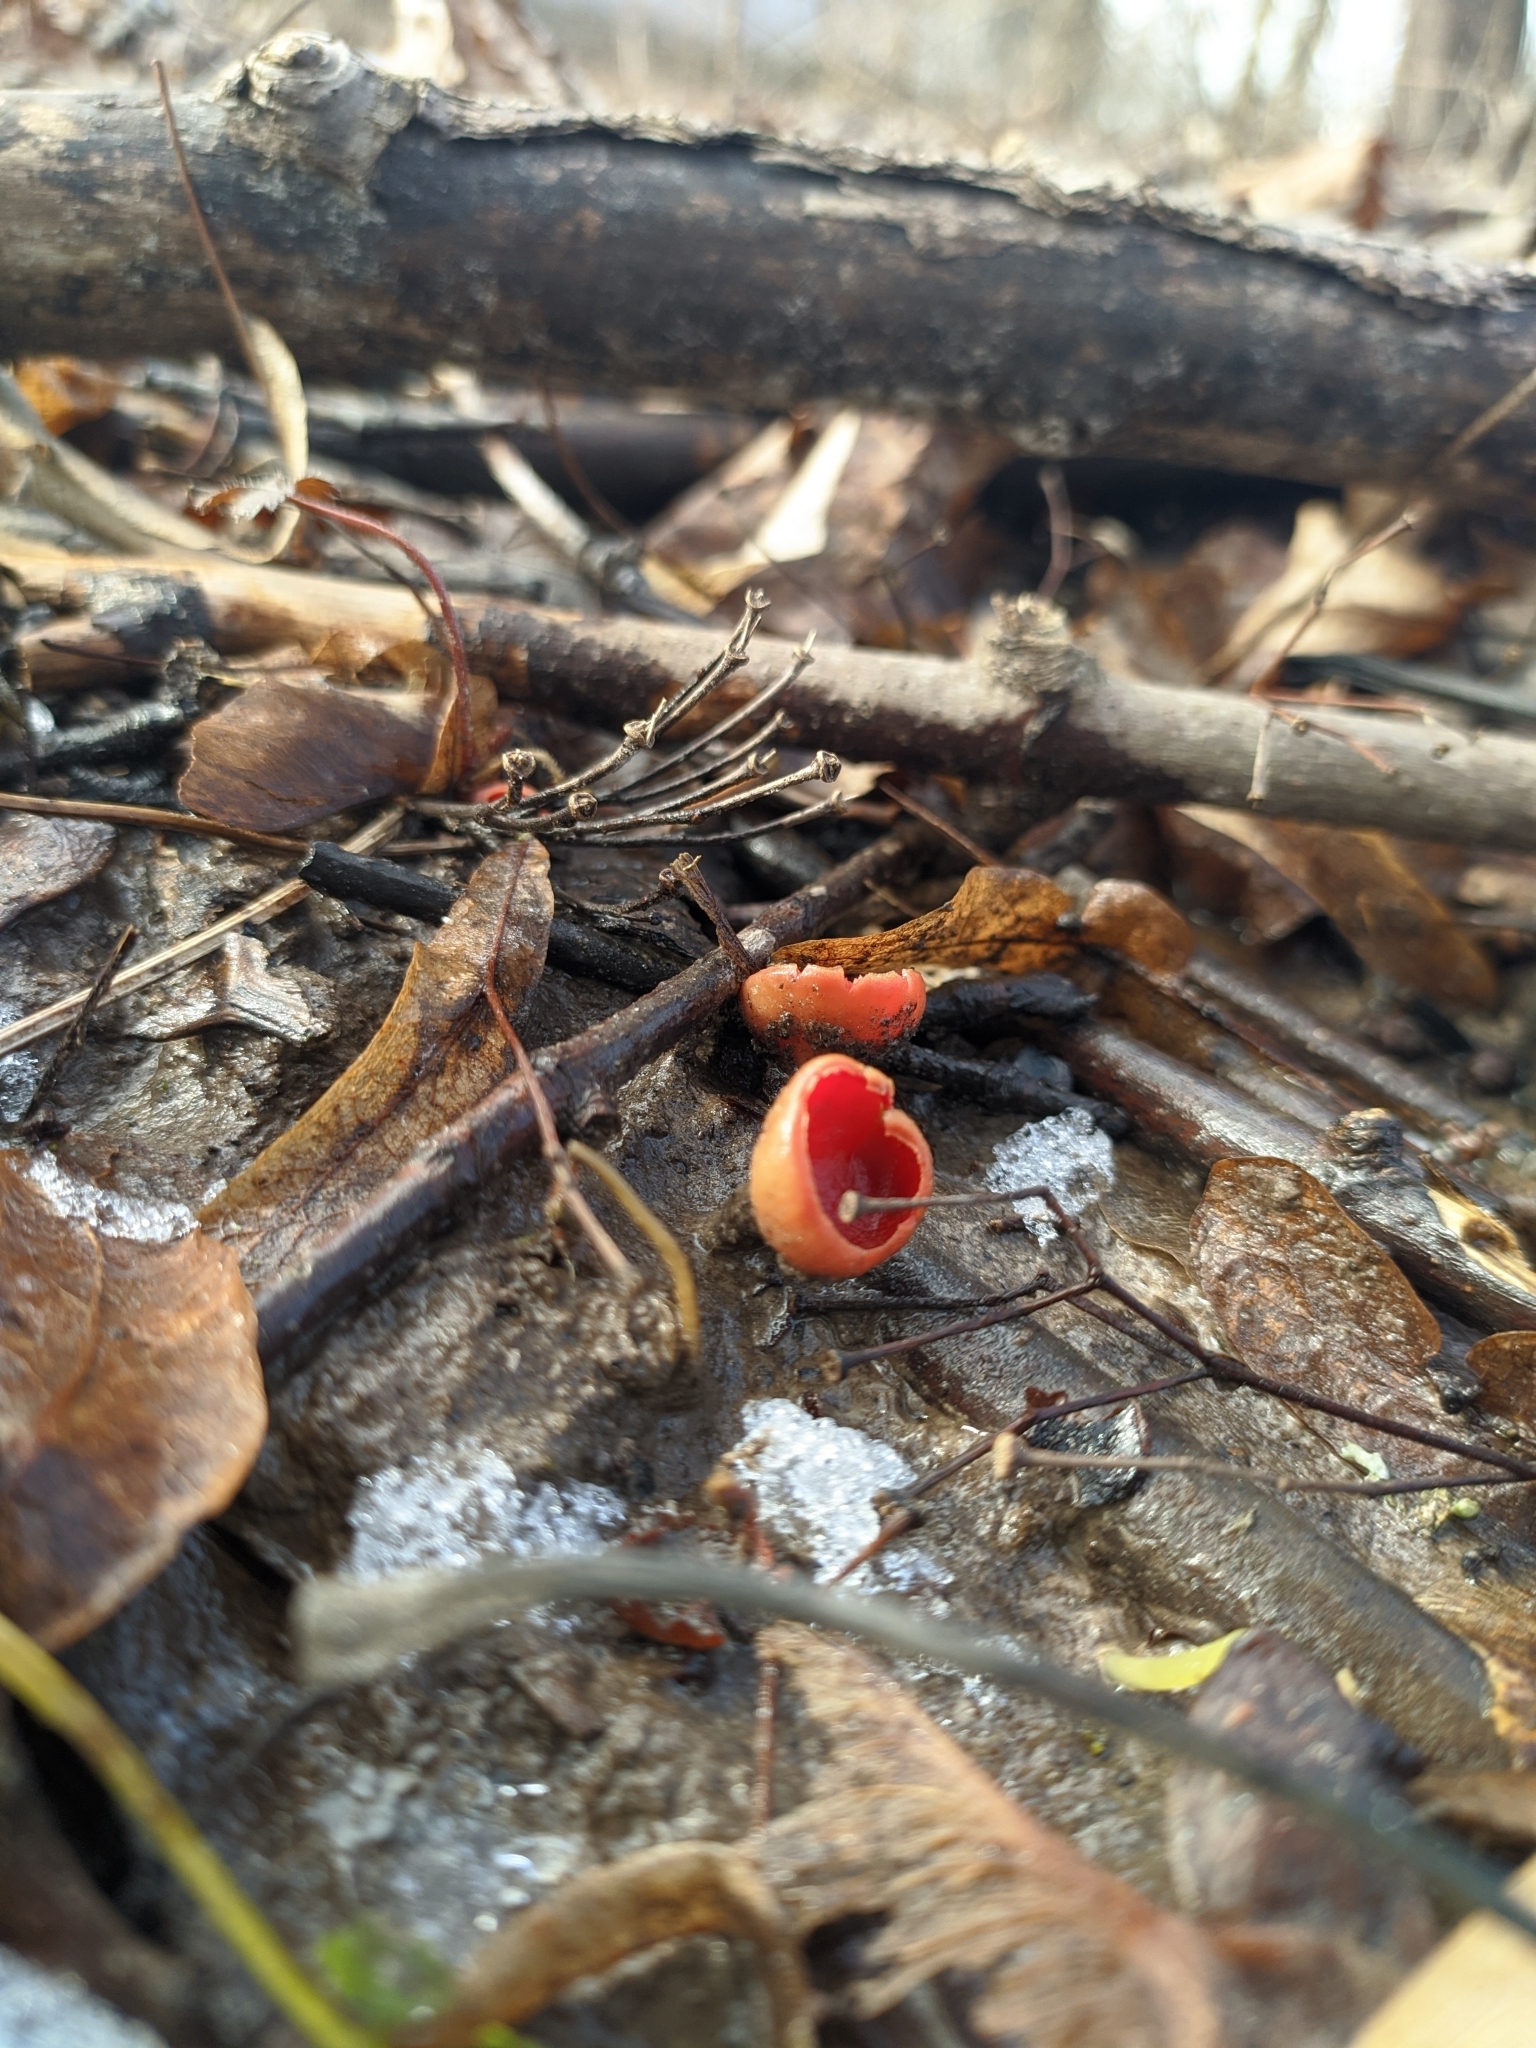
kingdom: Fungi
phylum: Ascomycota
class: Pezizomycetes
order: Pezizales
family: Sarcoscyphaceae
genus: Sarcoscypha
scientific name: Sarcoscypha
